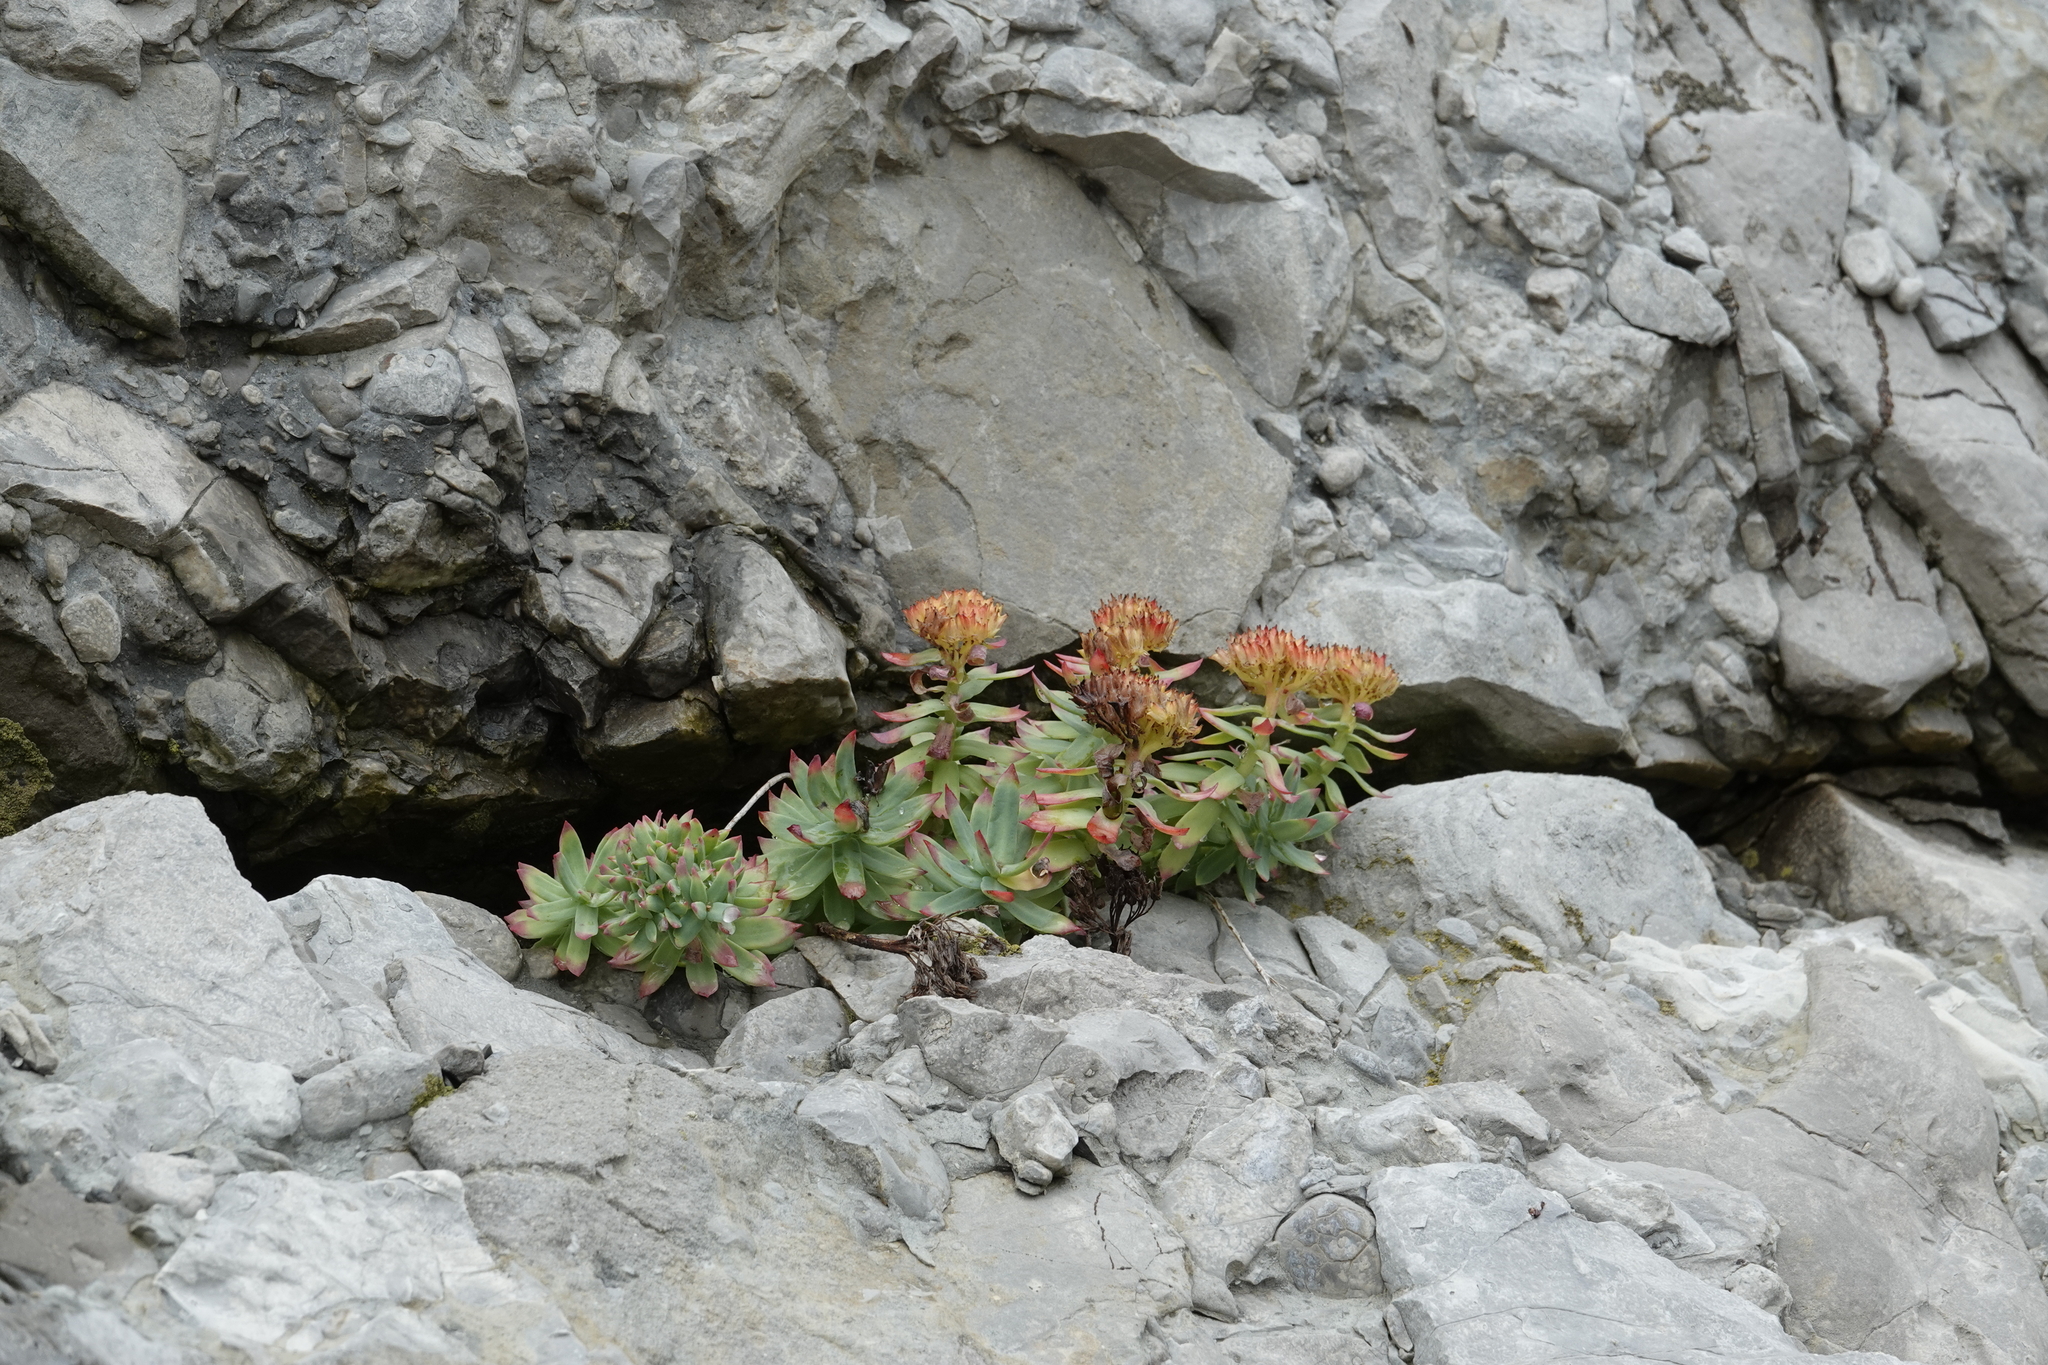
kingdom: Plantae
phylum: Tracheophyta
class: Magnoliopsida
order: Saxifragales
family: Crassulaceae
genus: Rhodiola
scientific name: Rhodiola rosea
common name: Roseroot
